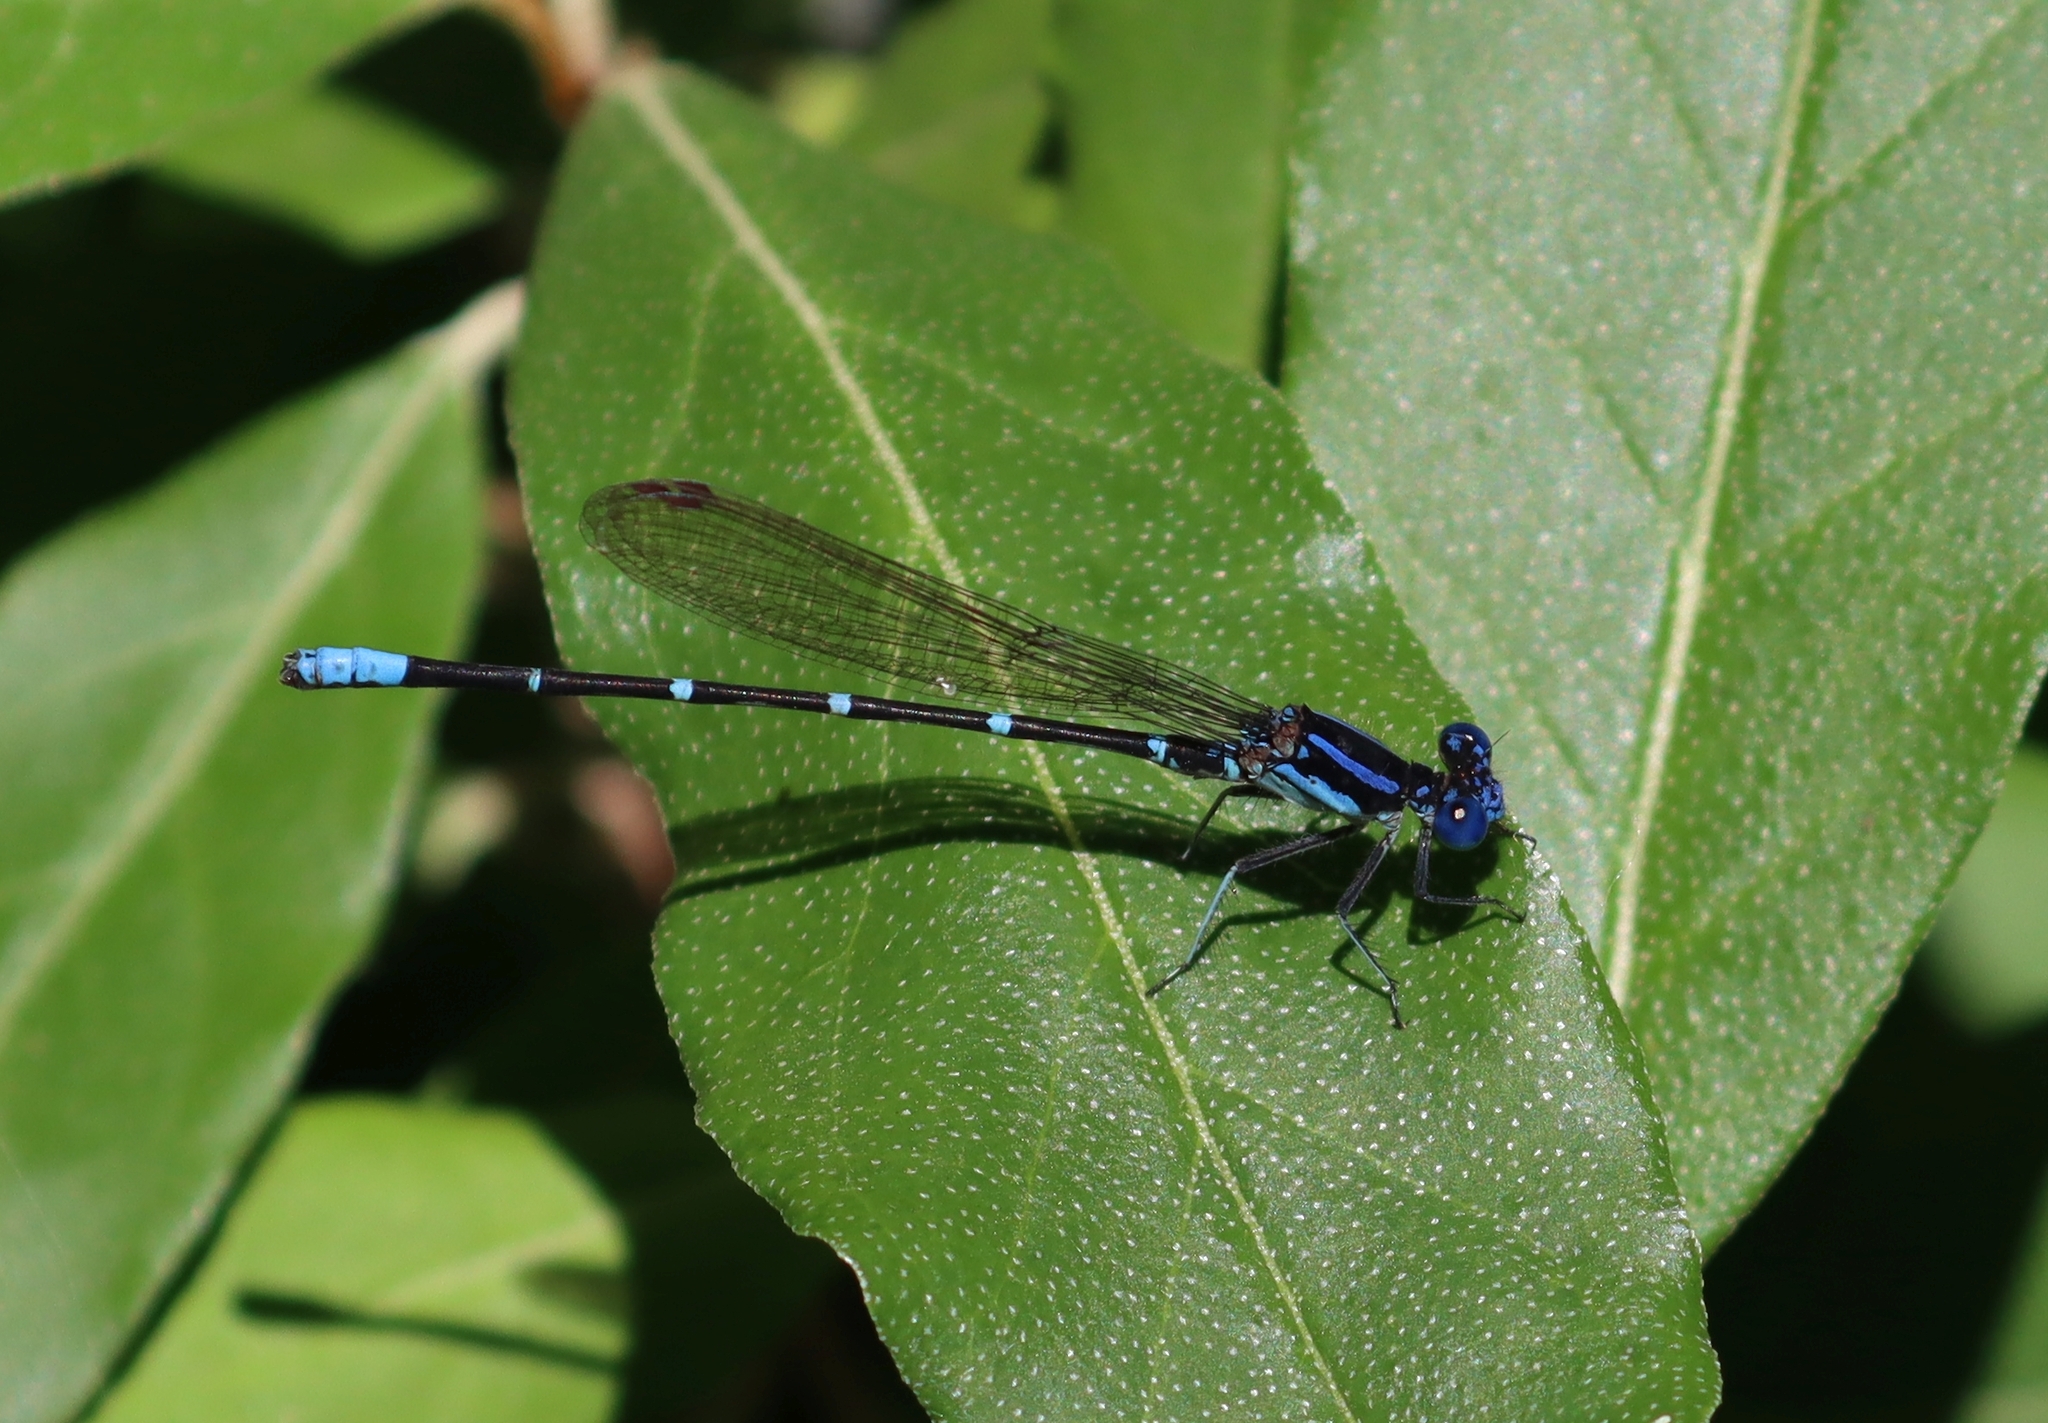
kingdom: Animalia
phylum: Arthropoda
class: Insecta
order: Odonata
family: Coenagrionidae
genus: Argia
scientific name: Argia sedula
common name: Blue-ringed dancer
